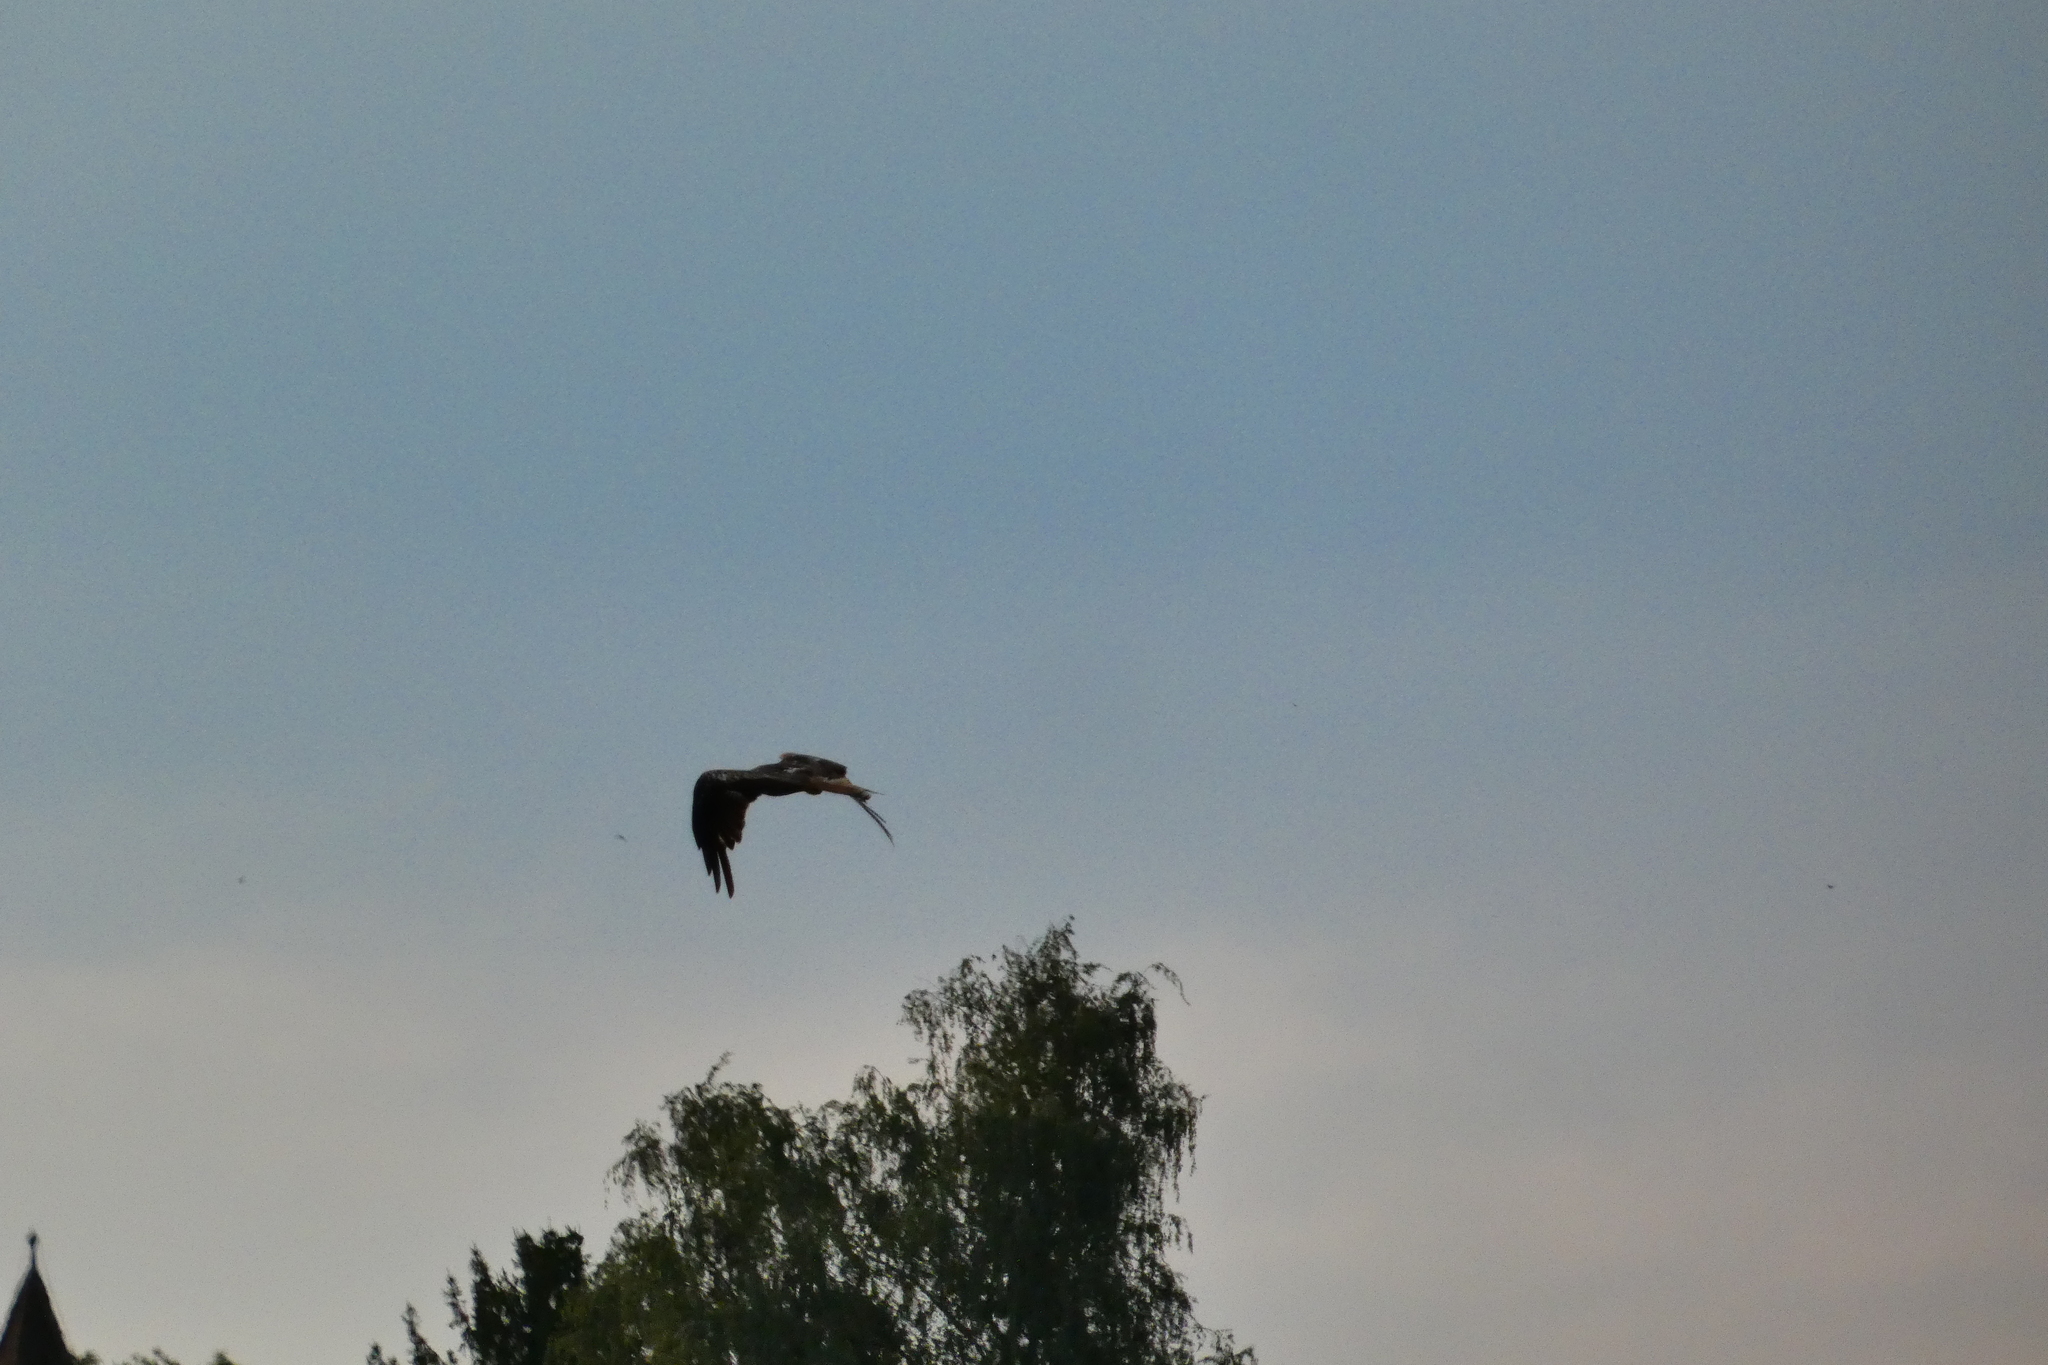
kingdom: Animalia
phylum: Chordata
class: Aves
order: Accipitriformes
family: Accipitridae
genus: Milvus
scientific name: Milvus milvus
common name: Red kite
